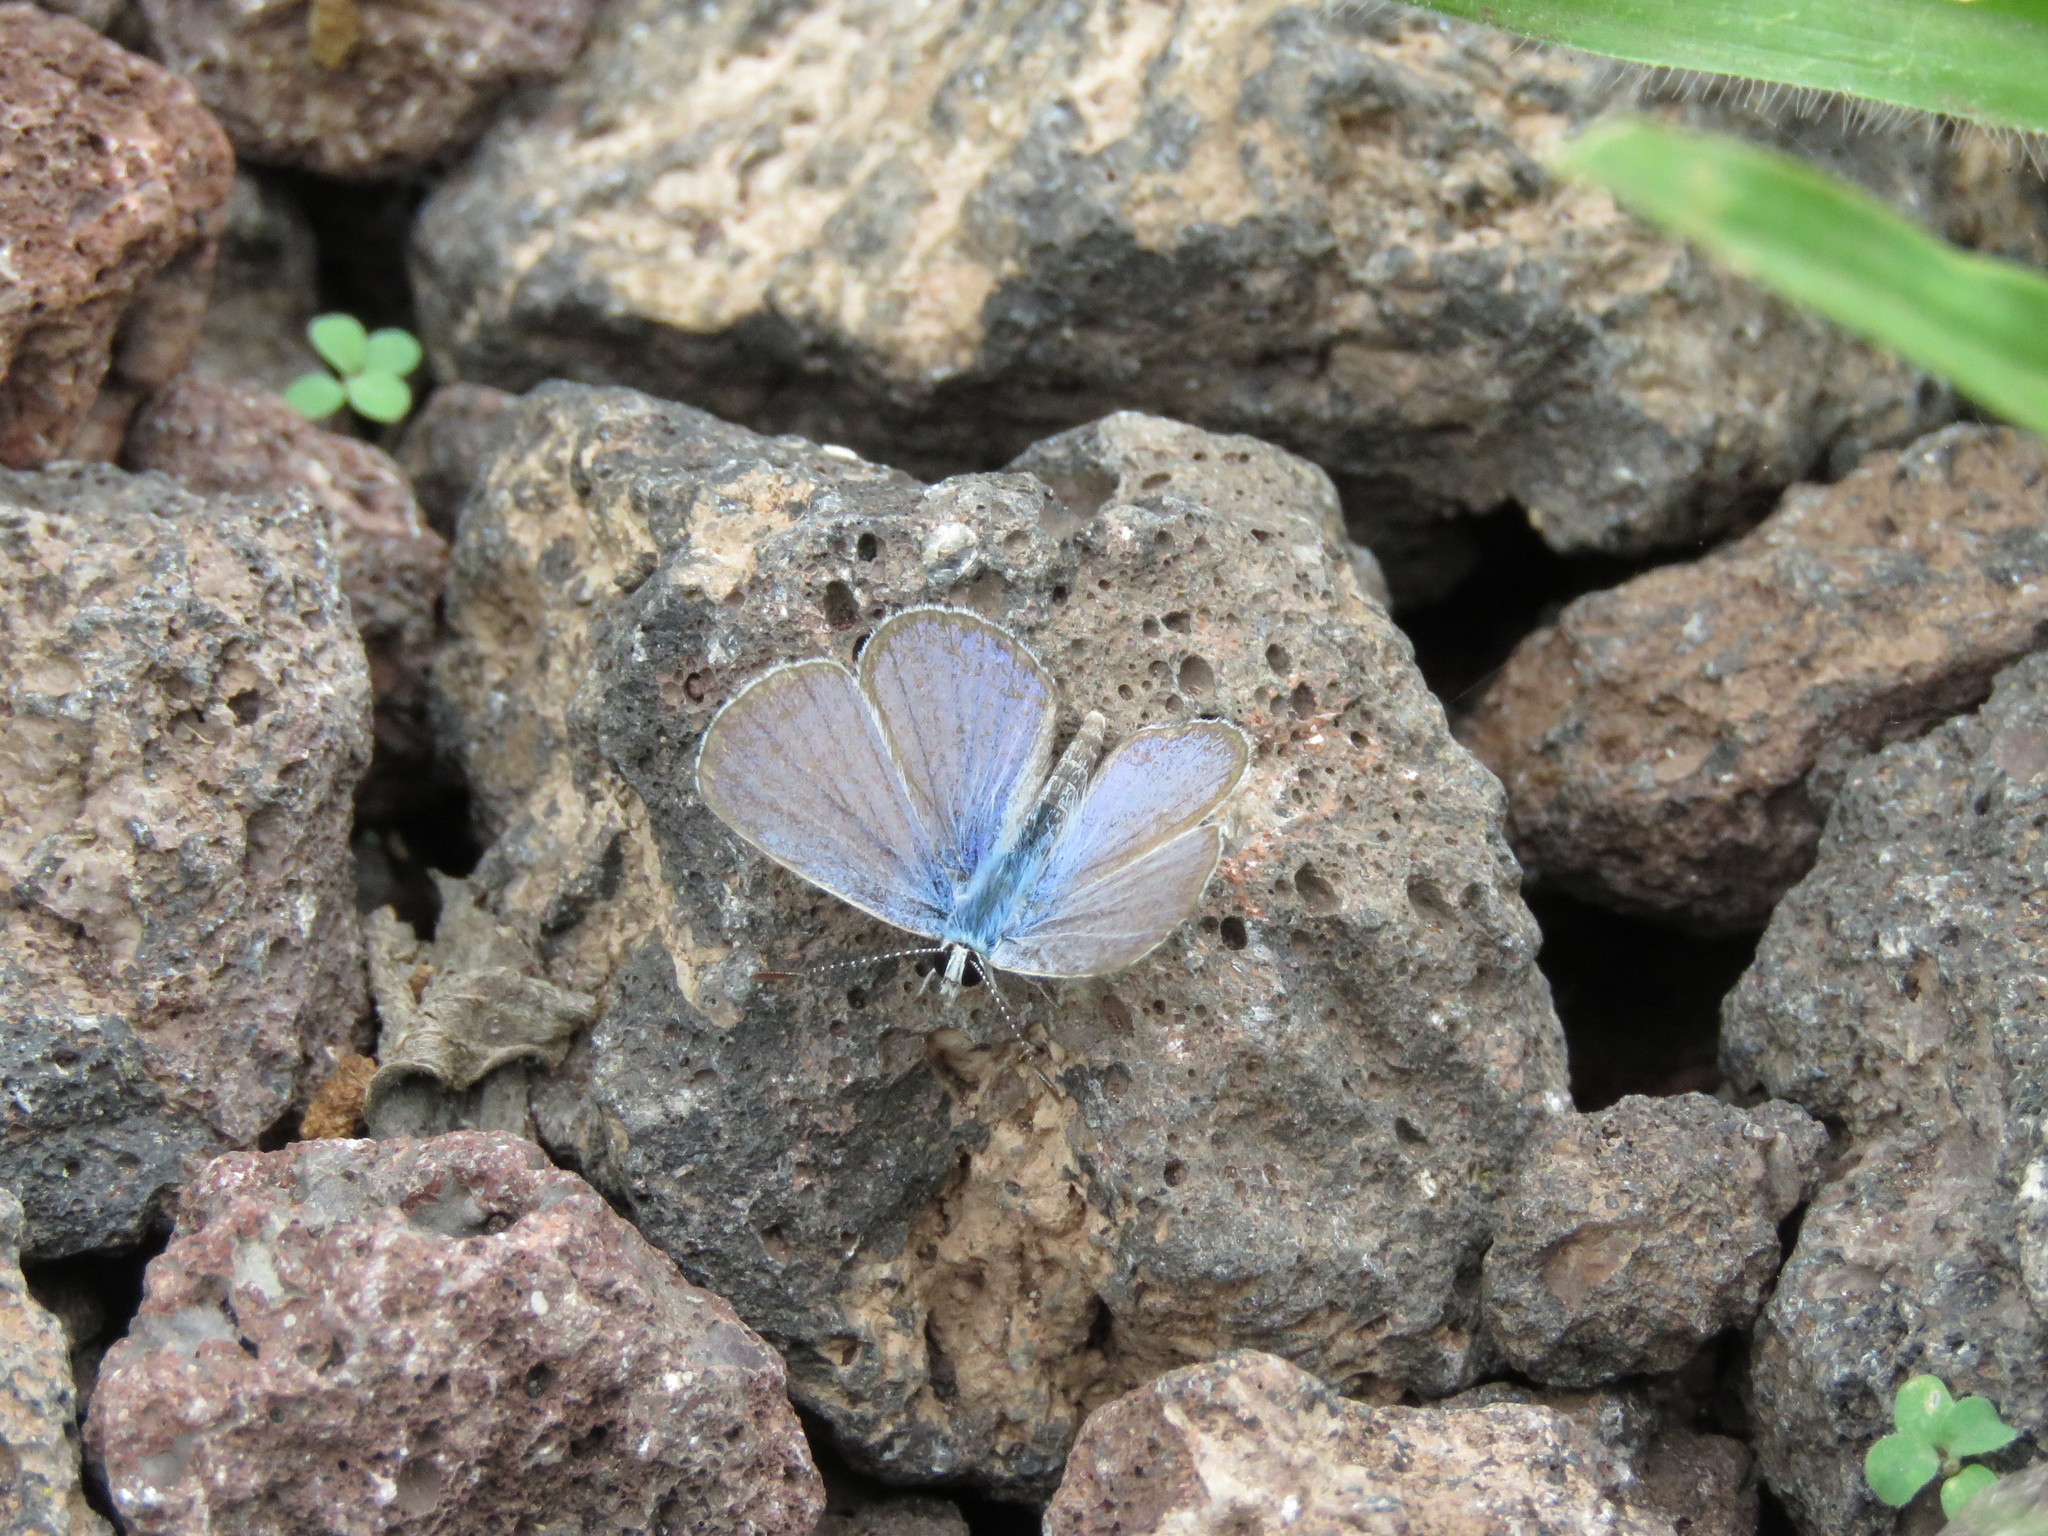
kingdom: Animalia
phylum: Arthropoda
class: Insecta
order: Lepidoptera
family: Lycaenidae
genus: Hemiargus
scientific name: Hemiargus ramon
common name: Ramon blue
